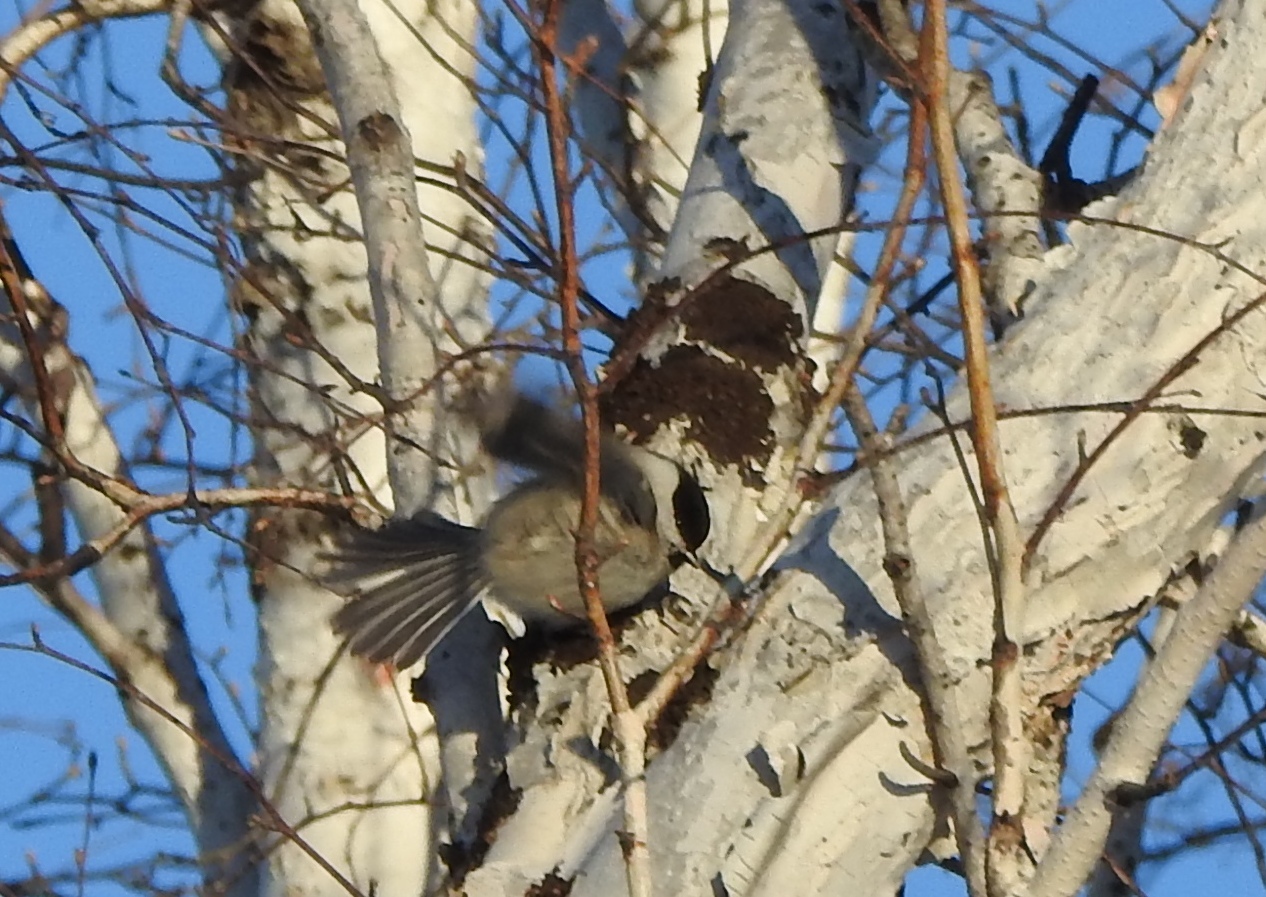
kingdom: Animalia
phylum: Chordata
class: Aves
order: Passeriformes
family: Paridae
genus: Poecile
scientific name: Poecile montanus
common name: Willow tit
